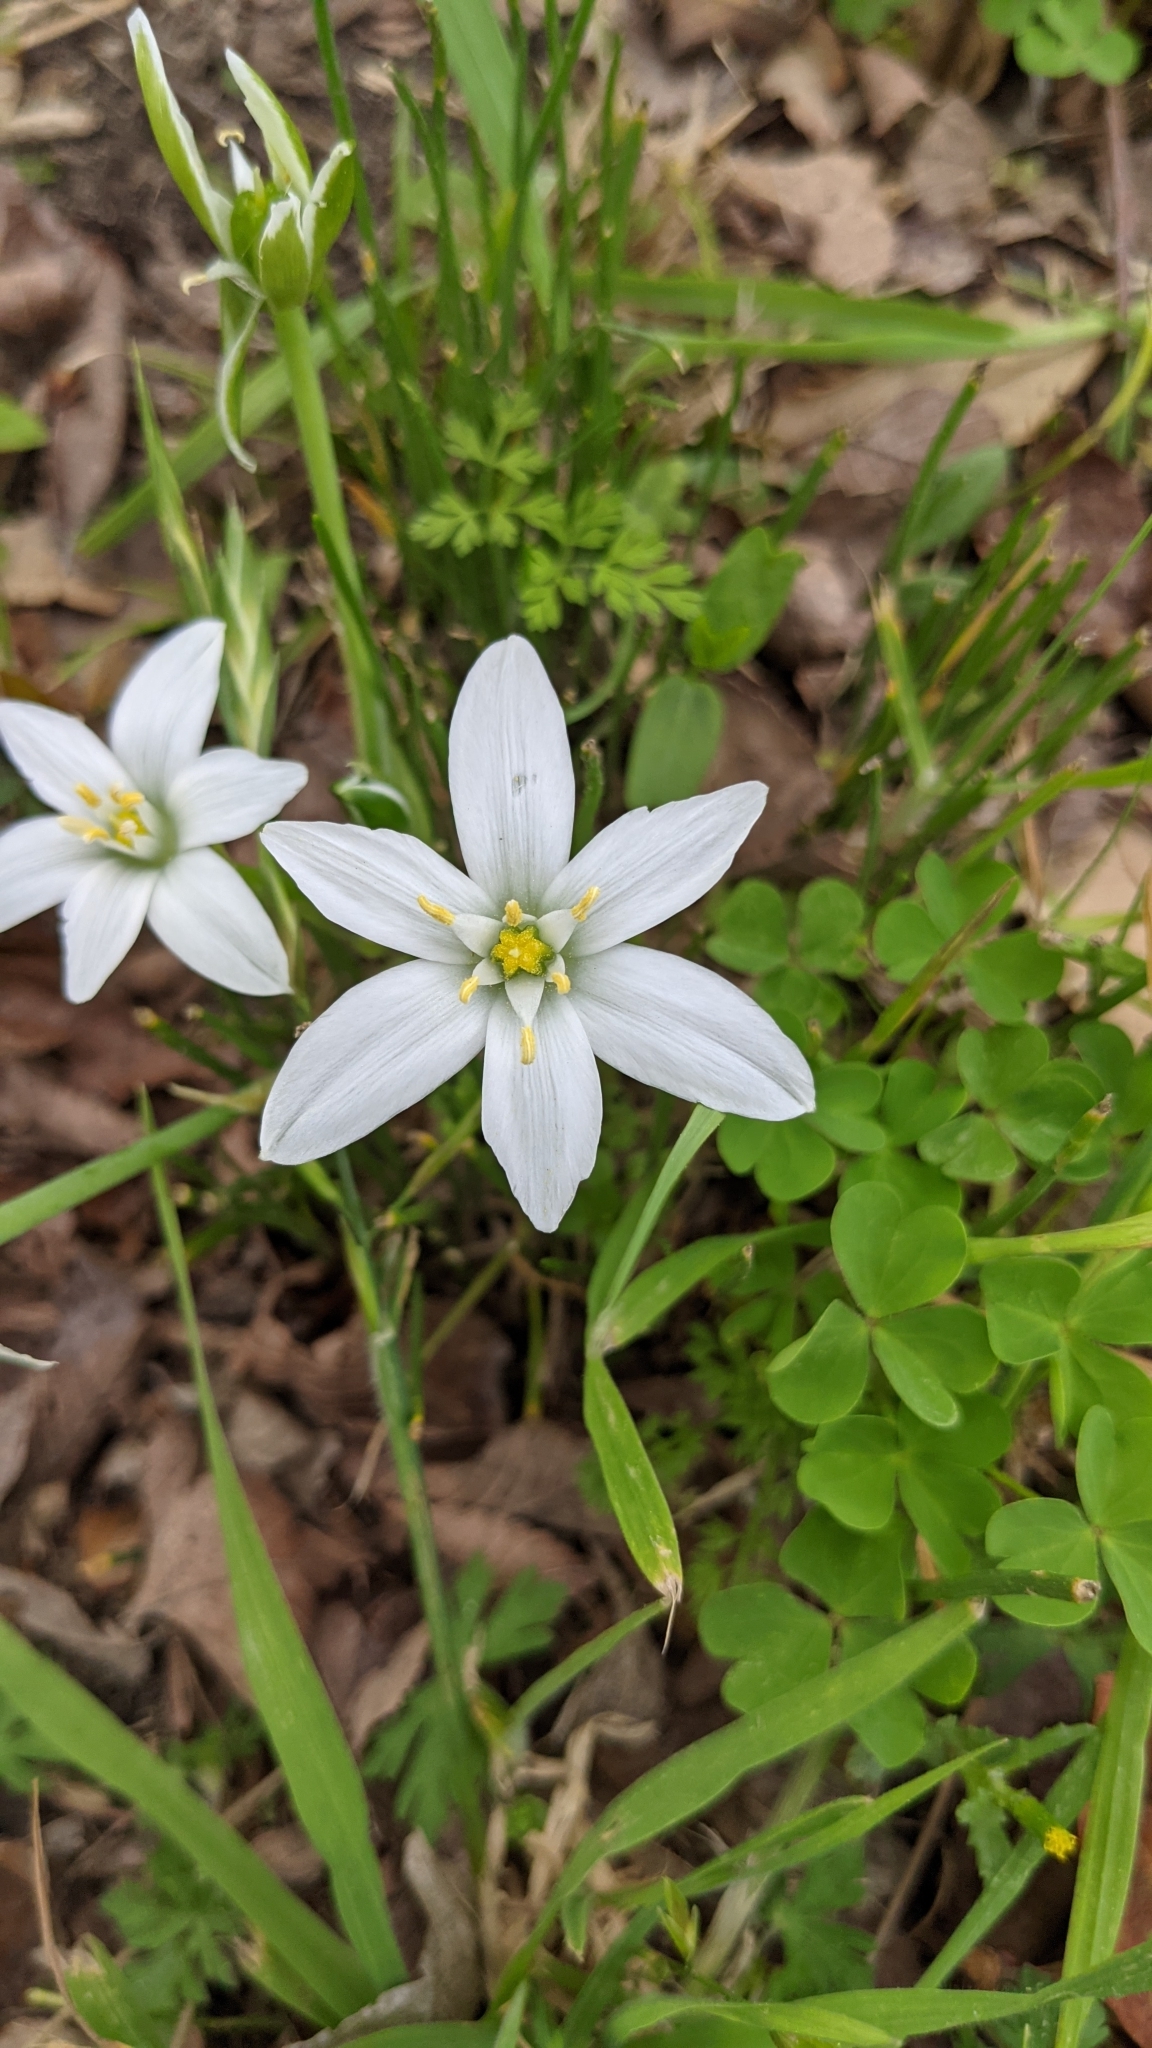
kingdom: Plantae
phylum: Tracheophyta
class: Liliopsida
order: Asparagales
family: Asparagaceae
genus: Ornithogalum
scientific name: Ornithogalum umbellatum
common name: Garden star-of-bethlehem
